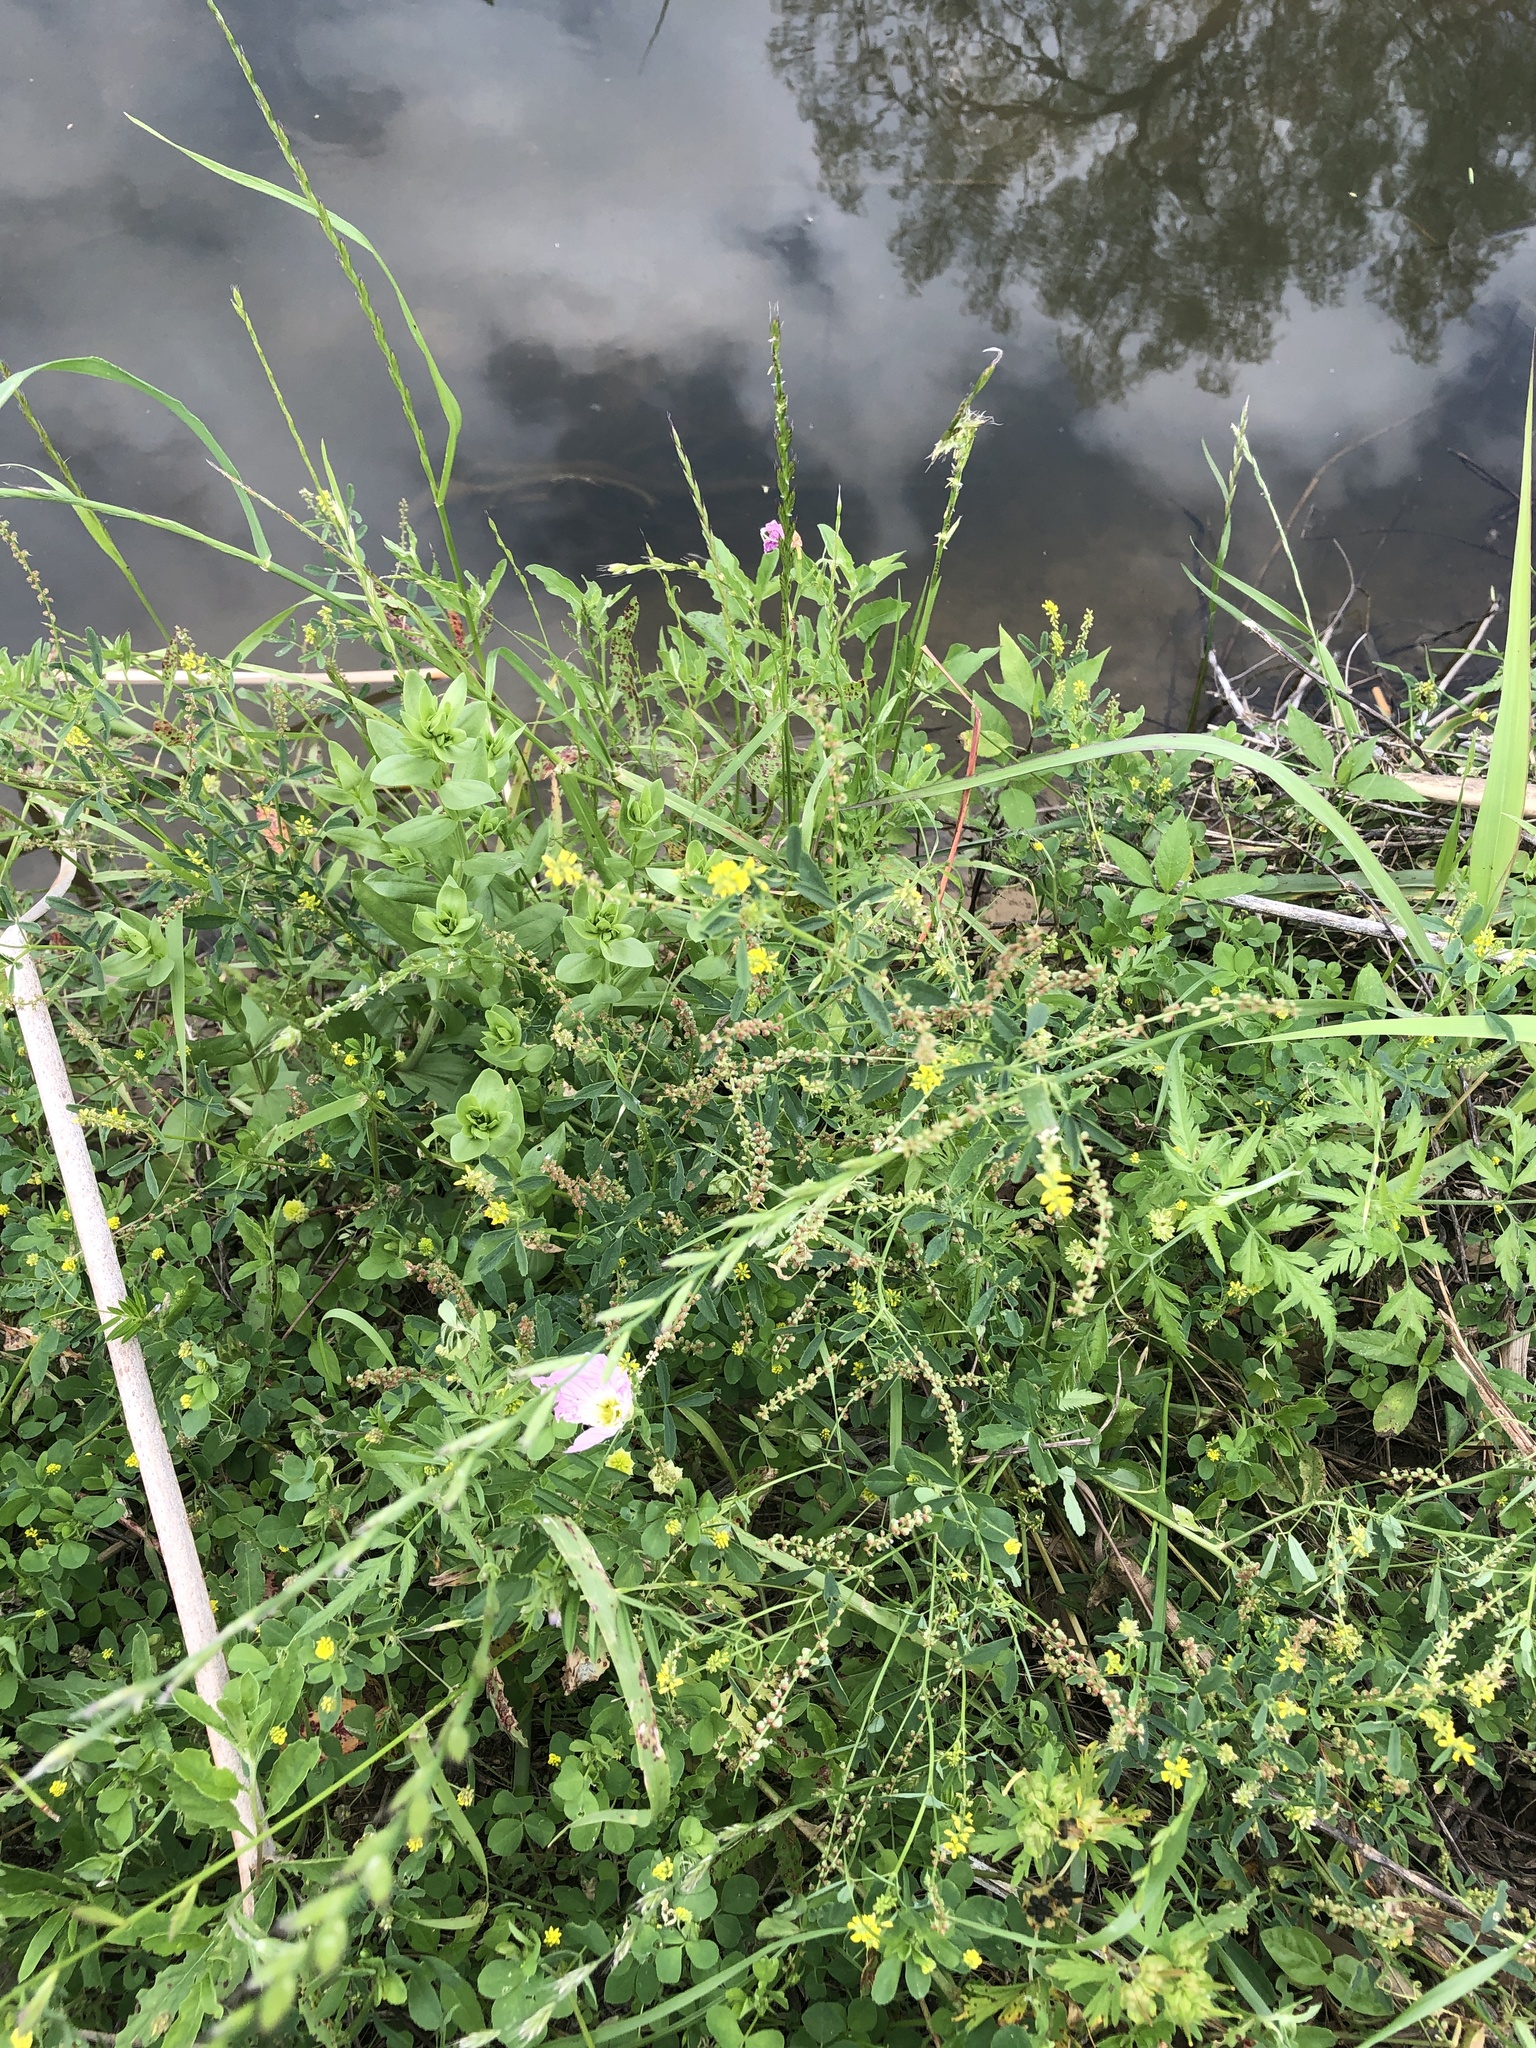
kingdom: Plantae
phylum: Tracheophyta
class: Magnoliopsida
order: Fabales
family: Fabaceae
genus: Melilotus
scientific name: Melilotus indicus
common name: Small melilot
